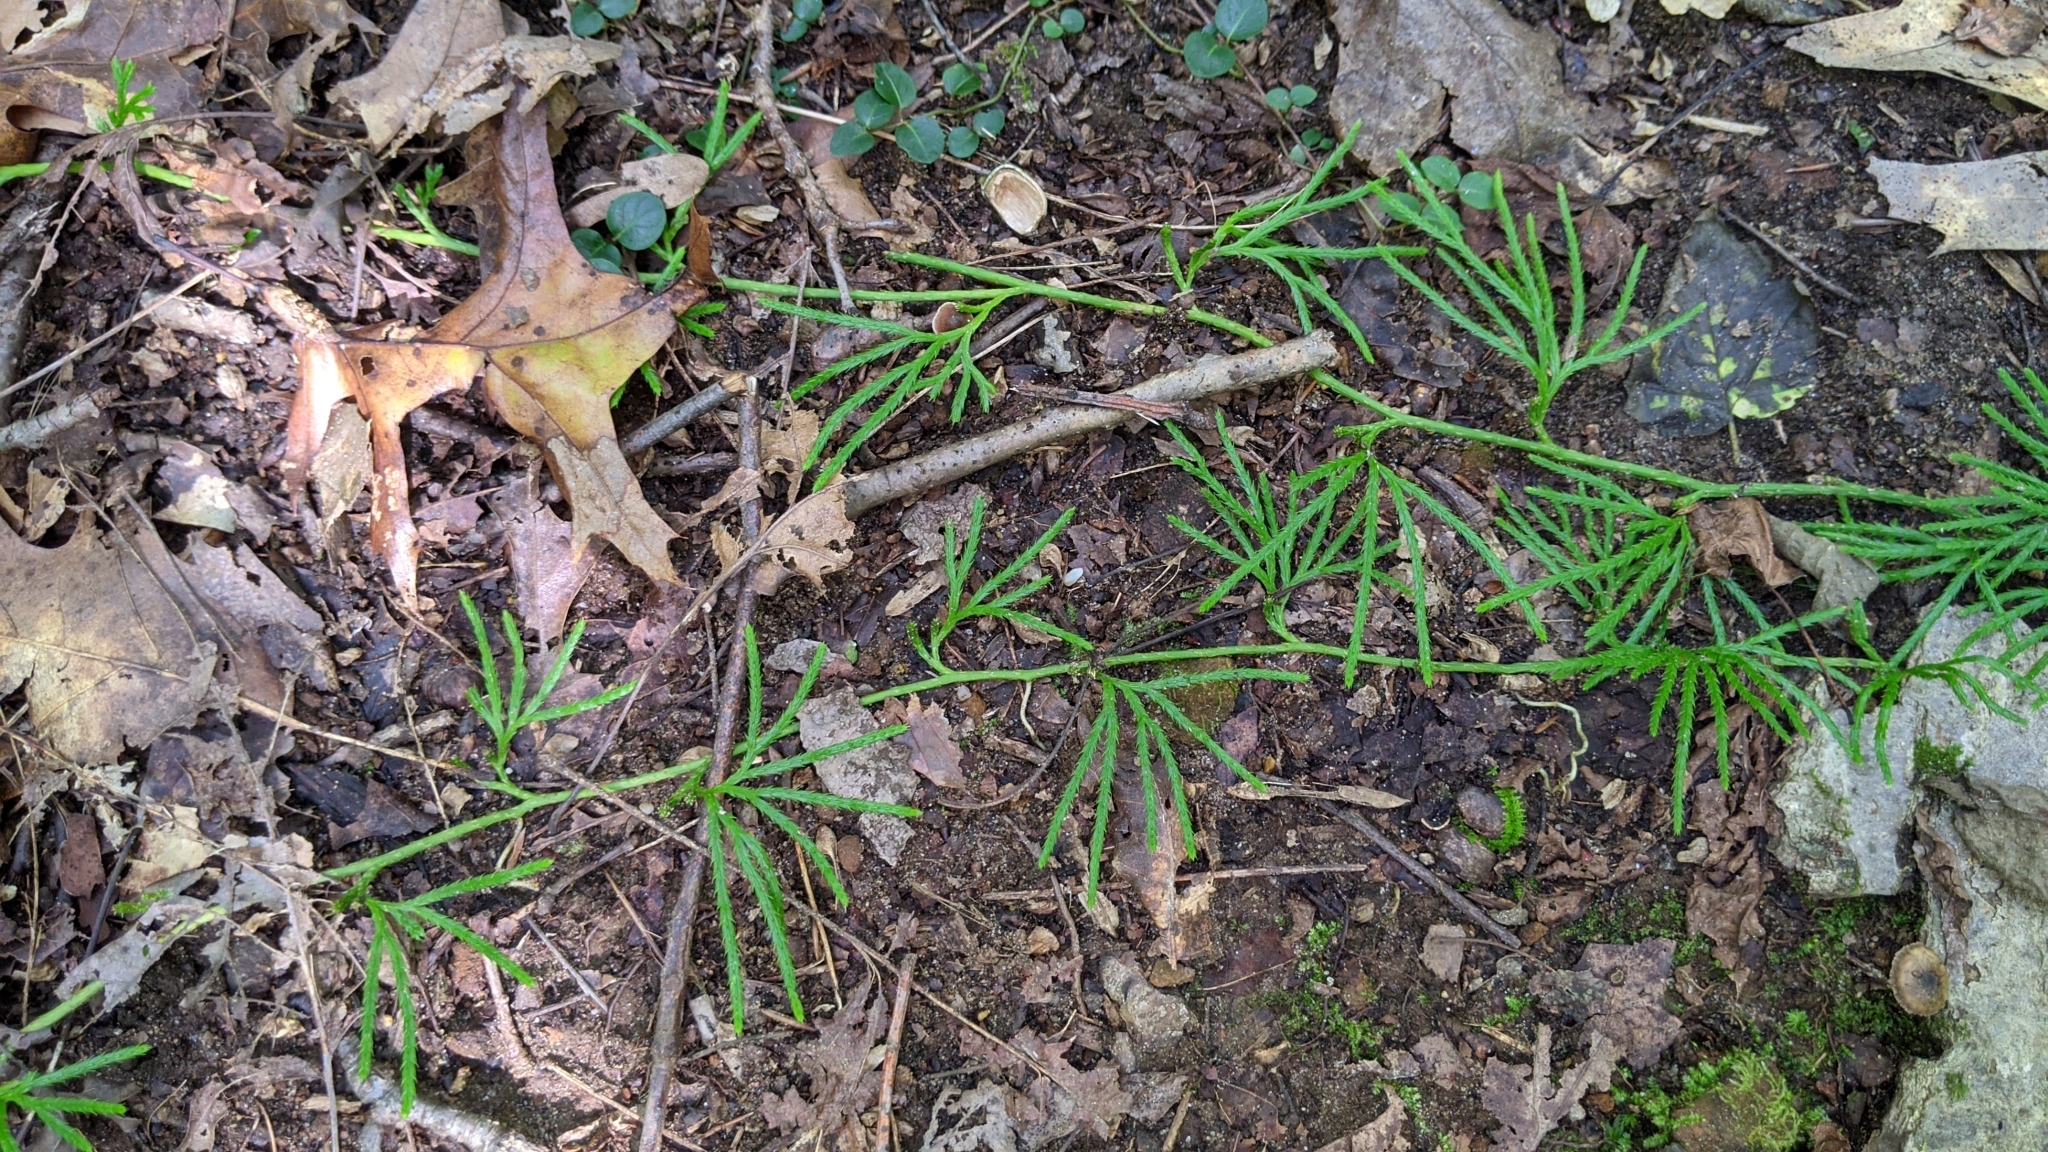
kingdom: Plantae
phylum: Tracheophyta
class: Lycopodiopsida
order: Lycopodiales
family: Lycopodiaceae
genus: Diphasiastrum
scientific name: Diphasiastrum digitatum
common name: Southern running-pine
